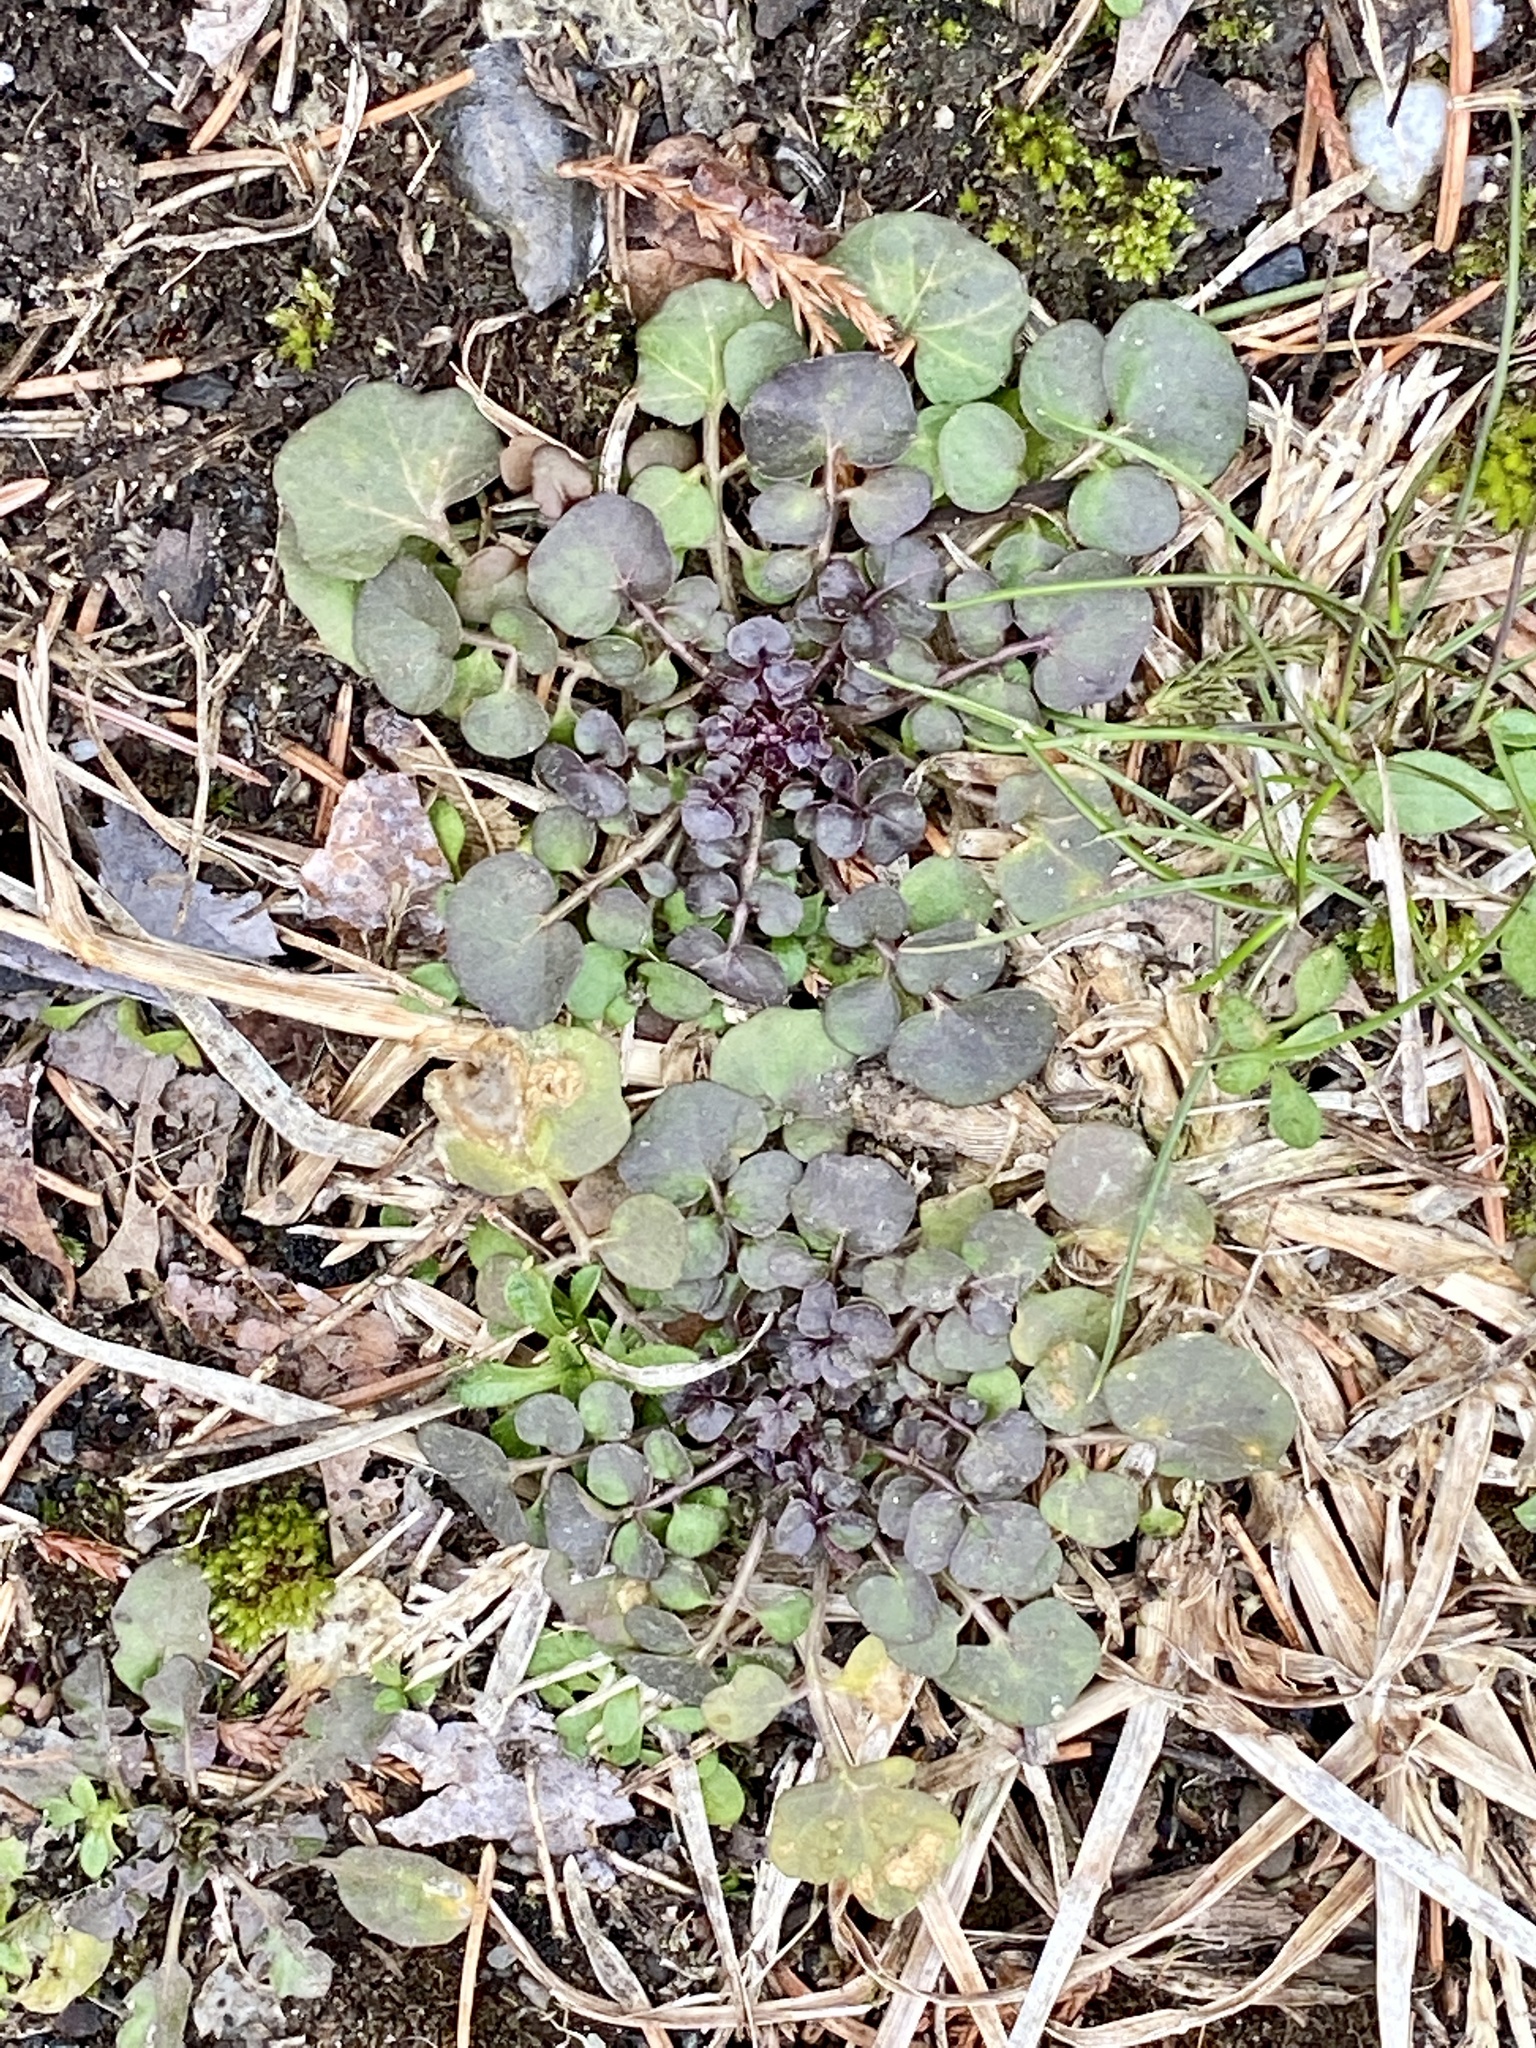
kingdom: Plantae
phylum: Tracheophyta
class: Magnoliopsida
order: Brassicales
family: Brassicaceae
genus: Cardamine
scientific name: Cardamine hirsuta
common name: Hairy bittercress
